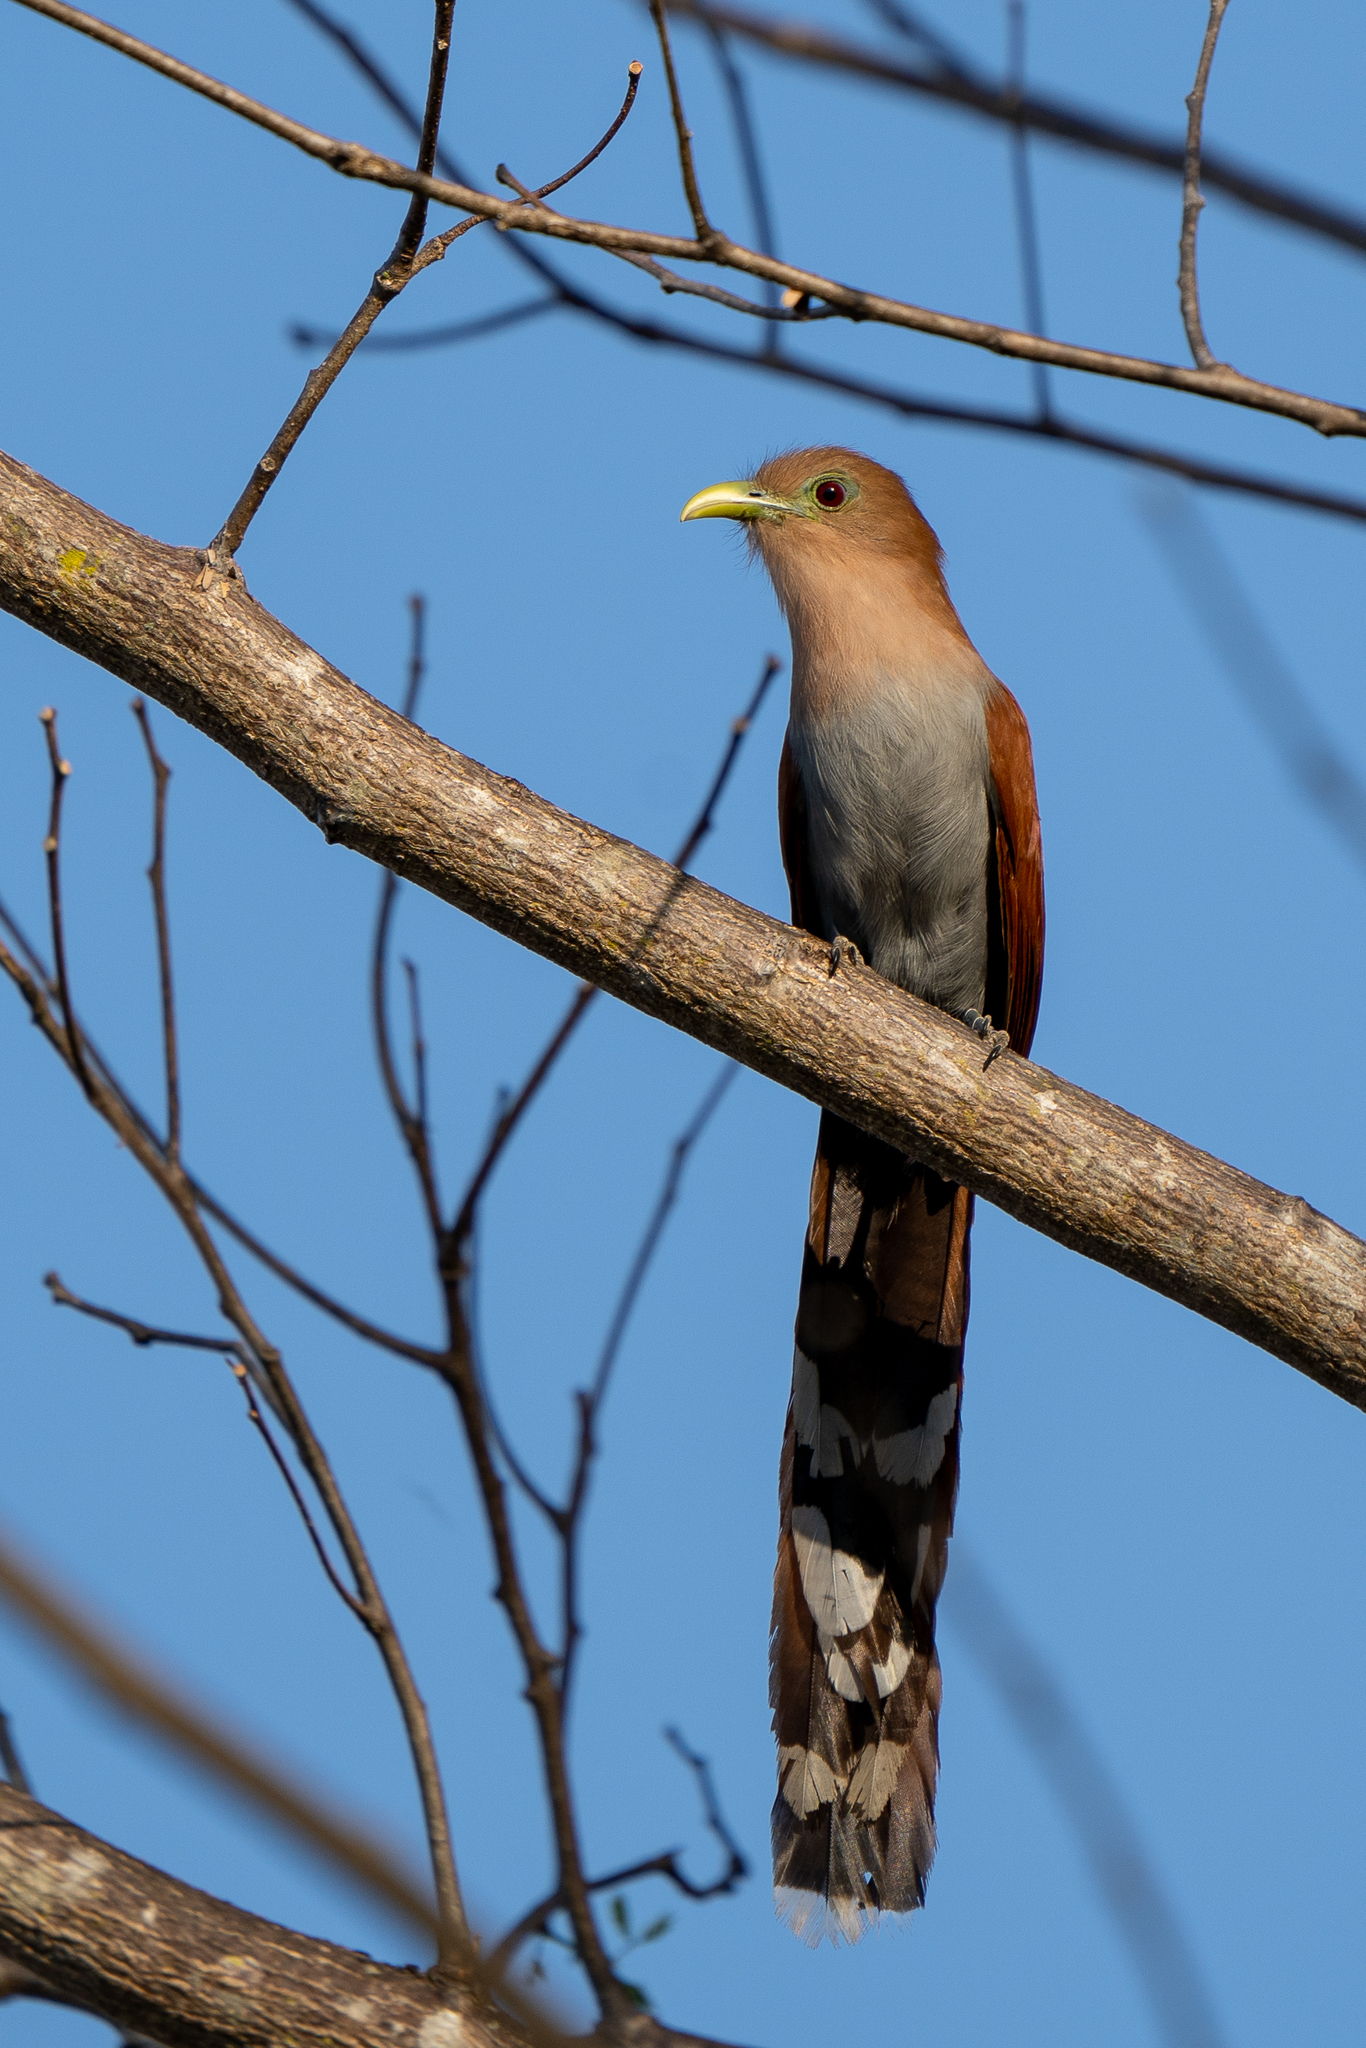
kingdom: Animalia
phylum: Chordata
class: Aves
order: Cuculiformes
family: Cuculidae
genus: Piaya
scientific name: Piaya cayana
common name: Squirrel cuckoo
